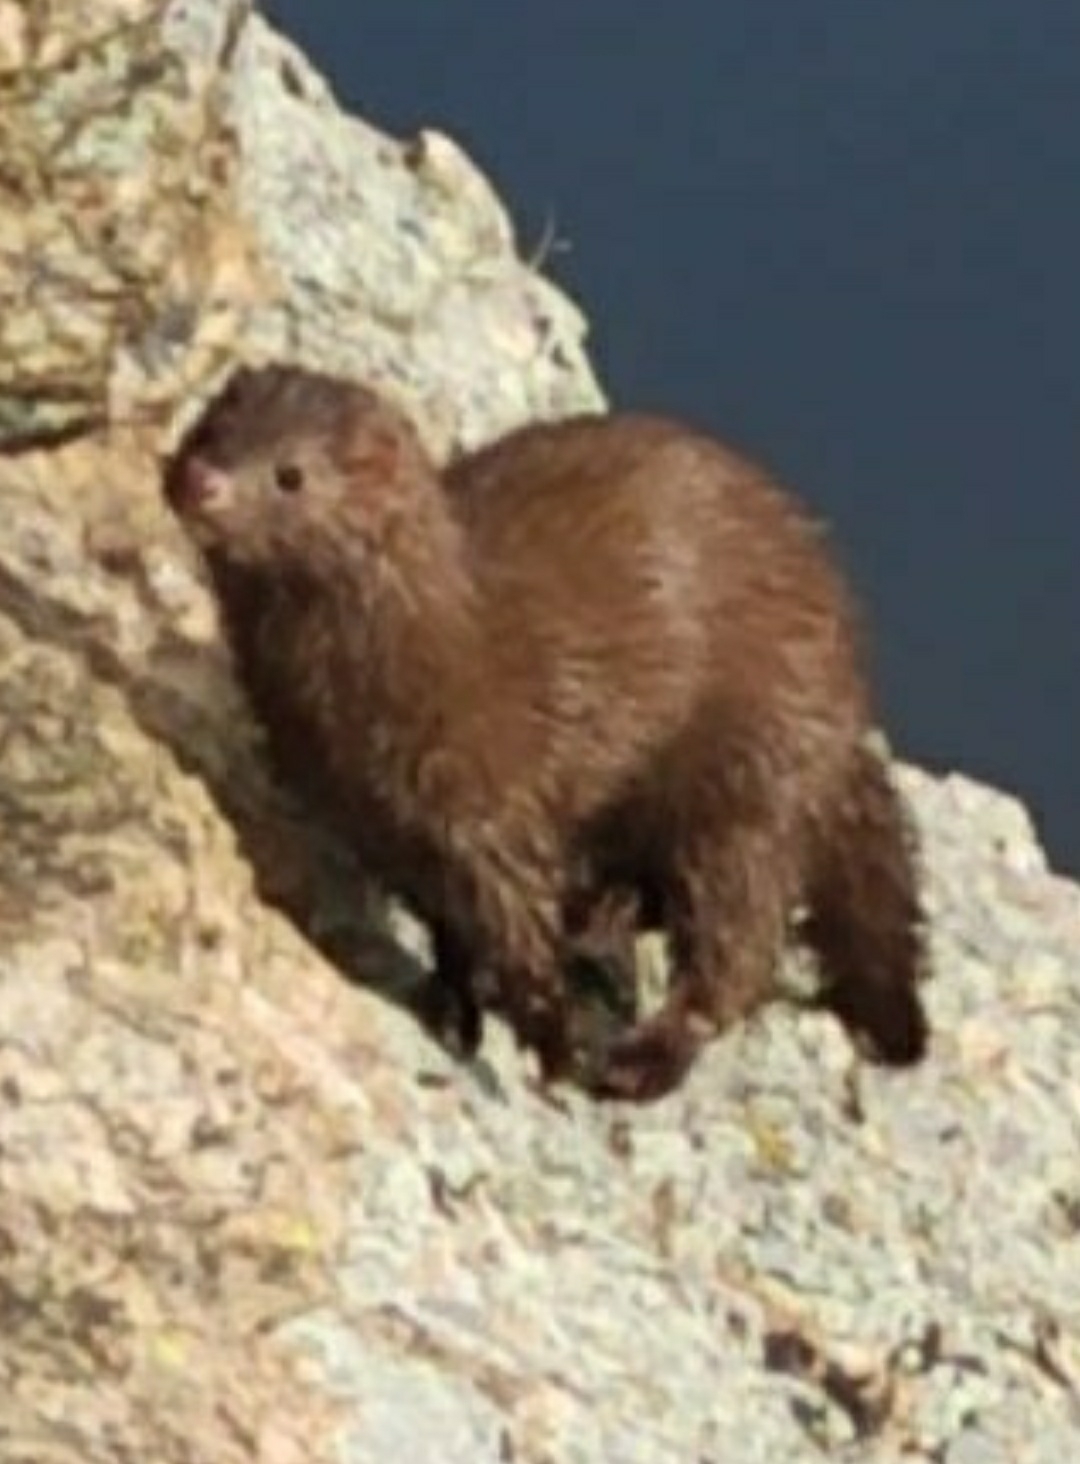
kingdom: Animalia
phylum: Chordata
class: Mammalia
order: Carnivora
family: Mustelidae
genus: Mustela
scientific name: Mustela
